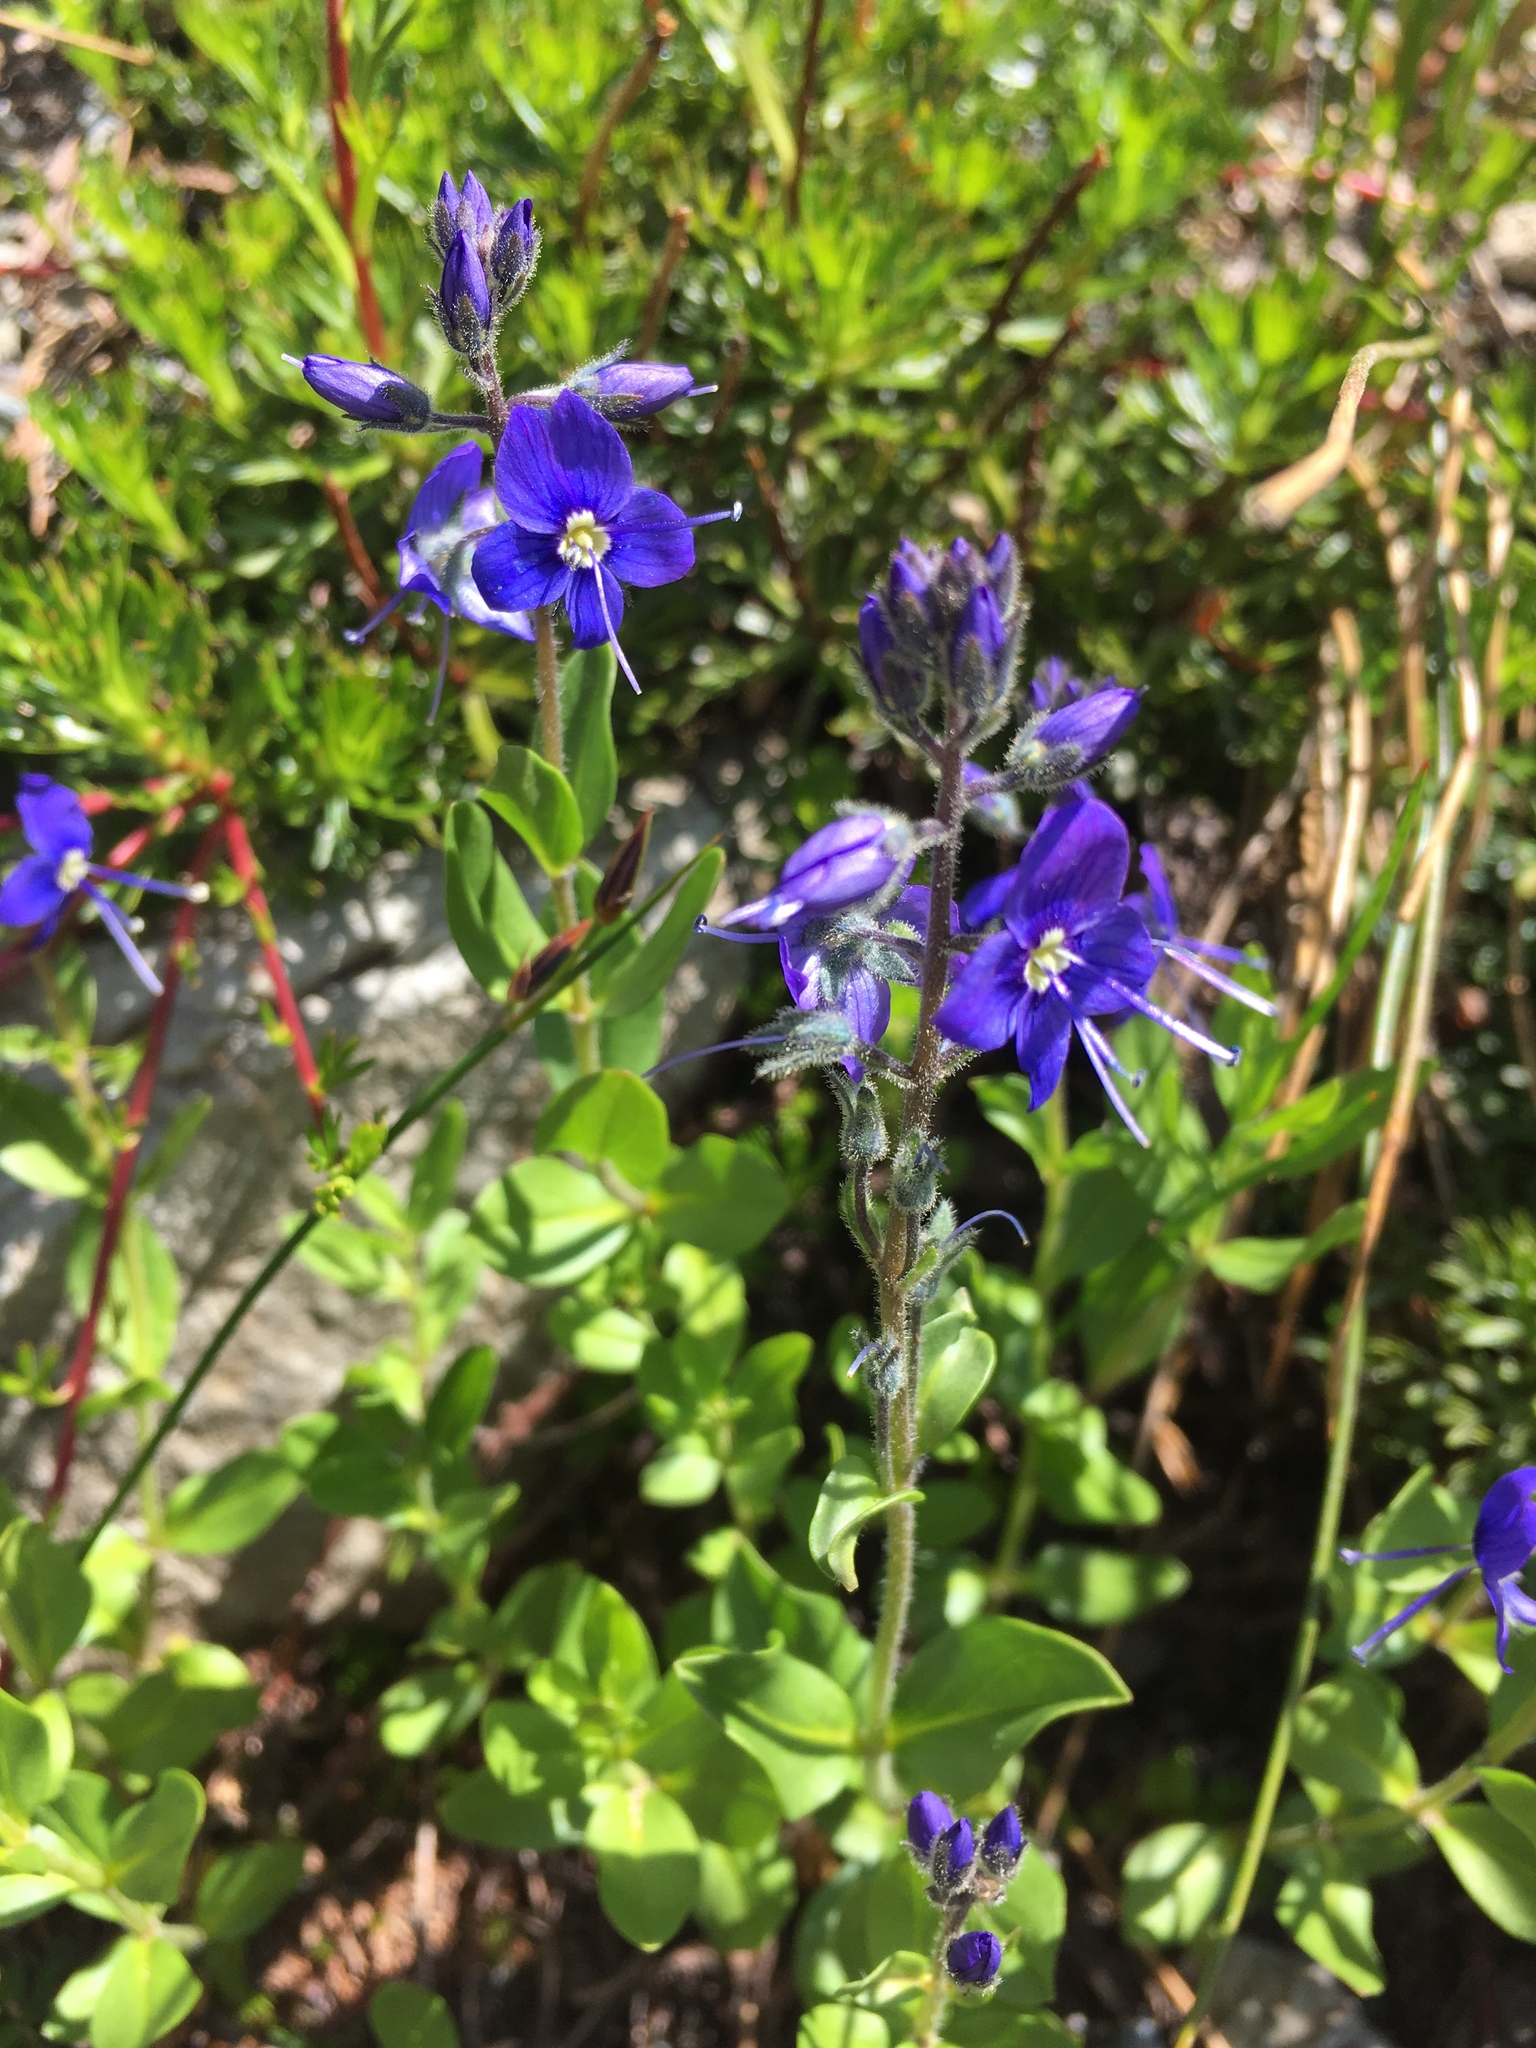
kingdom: Plantae
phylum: Tracheophyta
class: Magnoliopsida
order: Lamiales
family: Plantaginaceae
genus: Veronica
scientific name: Veronica cusickii
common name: Cusick's speedwell
